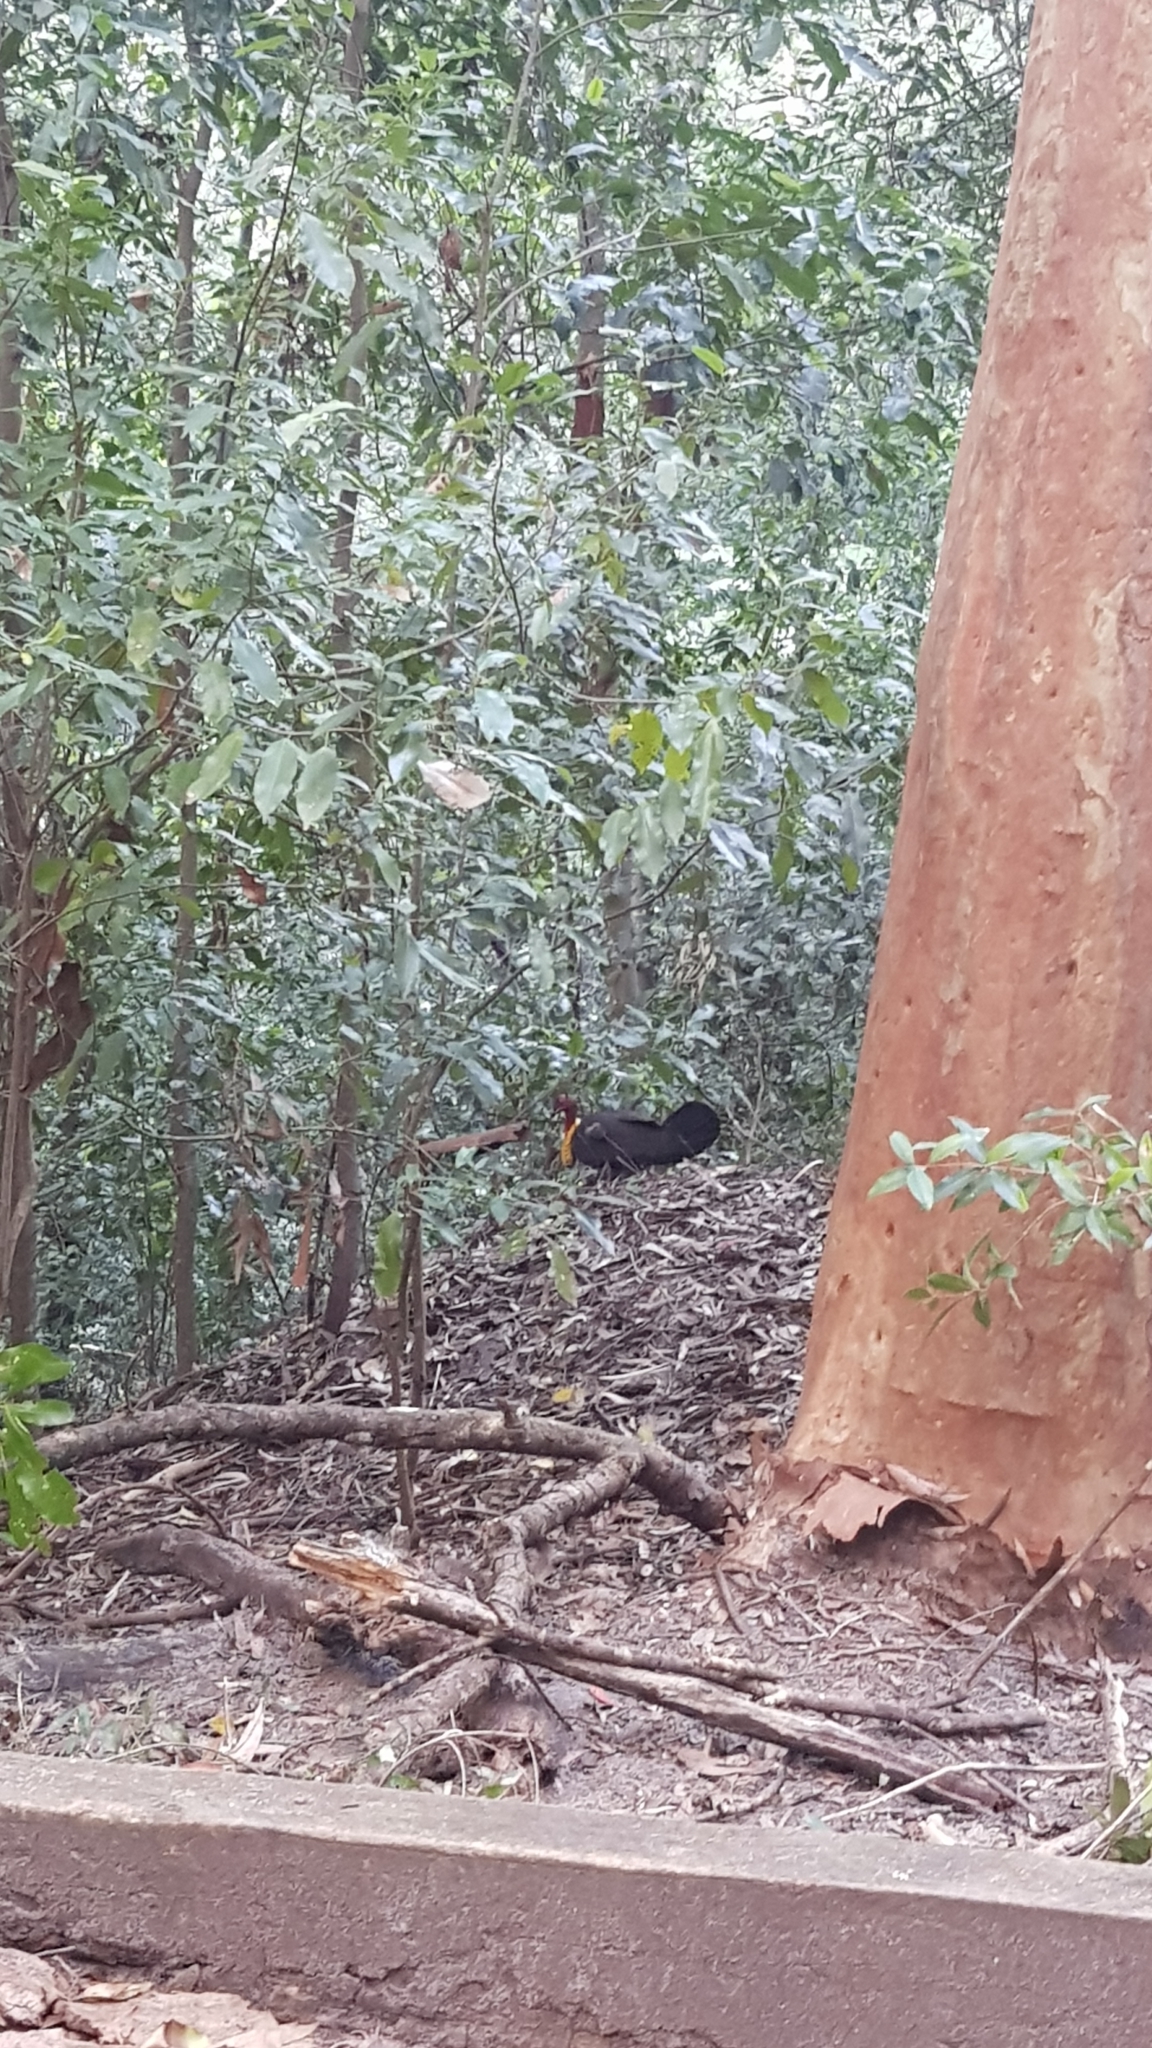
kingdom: Animalia
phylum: Chordata
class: Aves
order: Galliformes
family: Megapodiidae
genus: Alectura
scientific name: Alectura lathami
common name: Australian brushturkey
